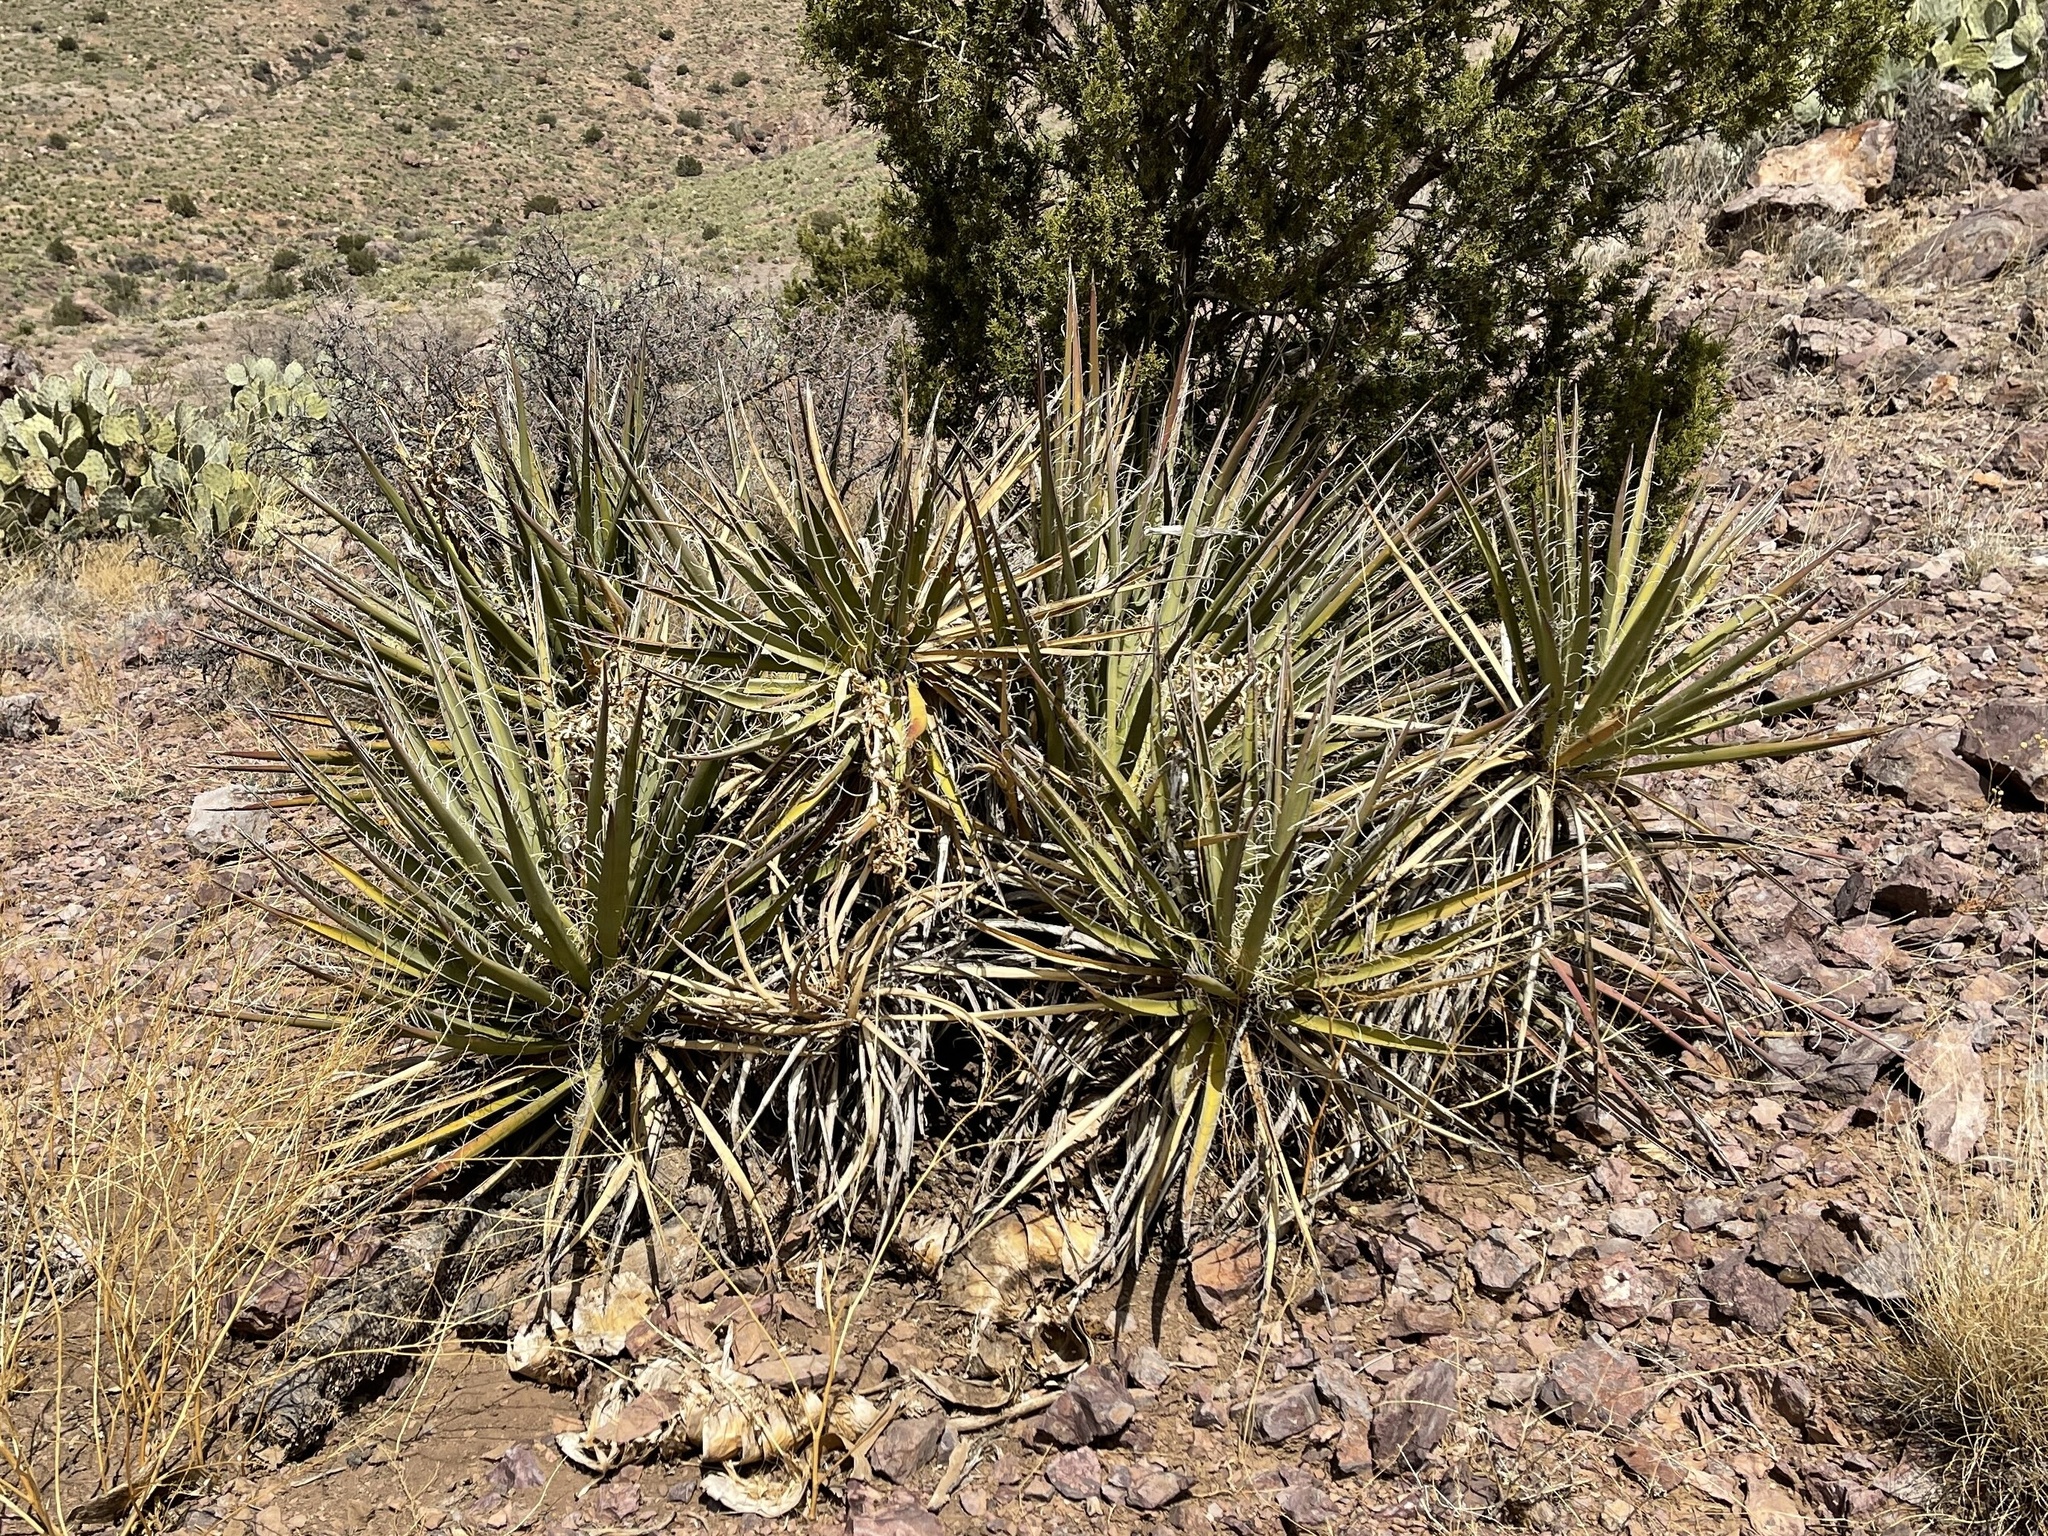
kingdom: Plantae
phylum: Tracheophyta
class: Liliopsida
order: Asparagales
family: Asparagaceae
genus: Yucca
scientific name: Yucca baccata
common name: Banana yucca
